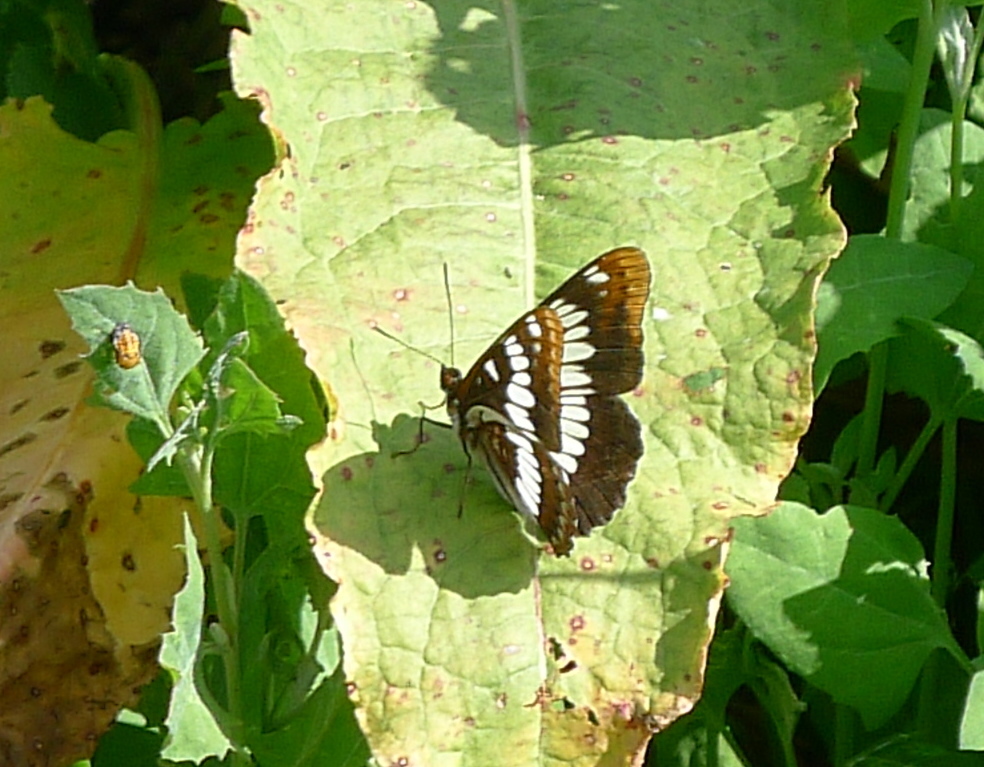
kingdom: Animalia
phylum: Arthropoda
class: Insecta
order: Lepidoptera
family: Nymphalidae
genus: Limenitis
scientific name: Limenitis lorquini
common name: Lorquin's admiral
